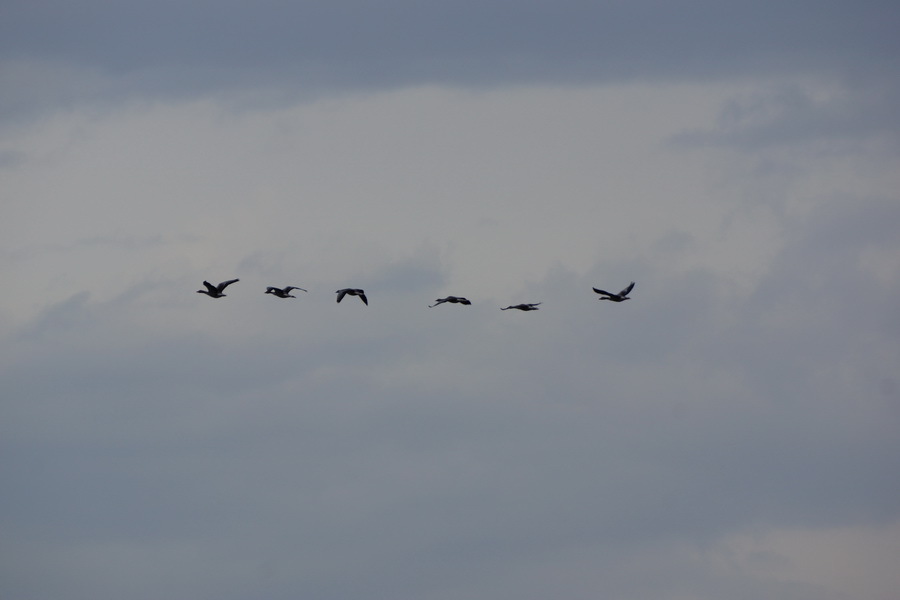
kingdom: Animalia
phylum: Chordata
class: Aves
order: Anseriformes
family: Anatidae
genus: Anser
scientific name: Anser anser
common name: Greylag goose
